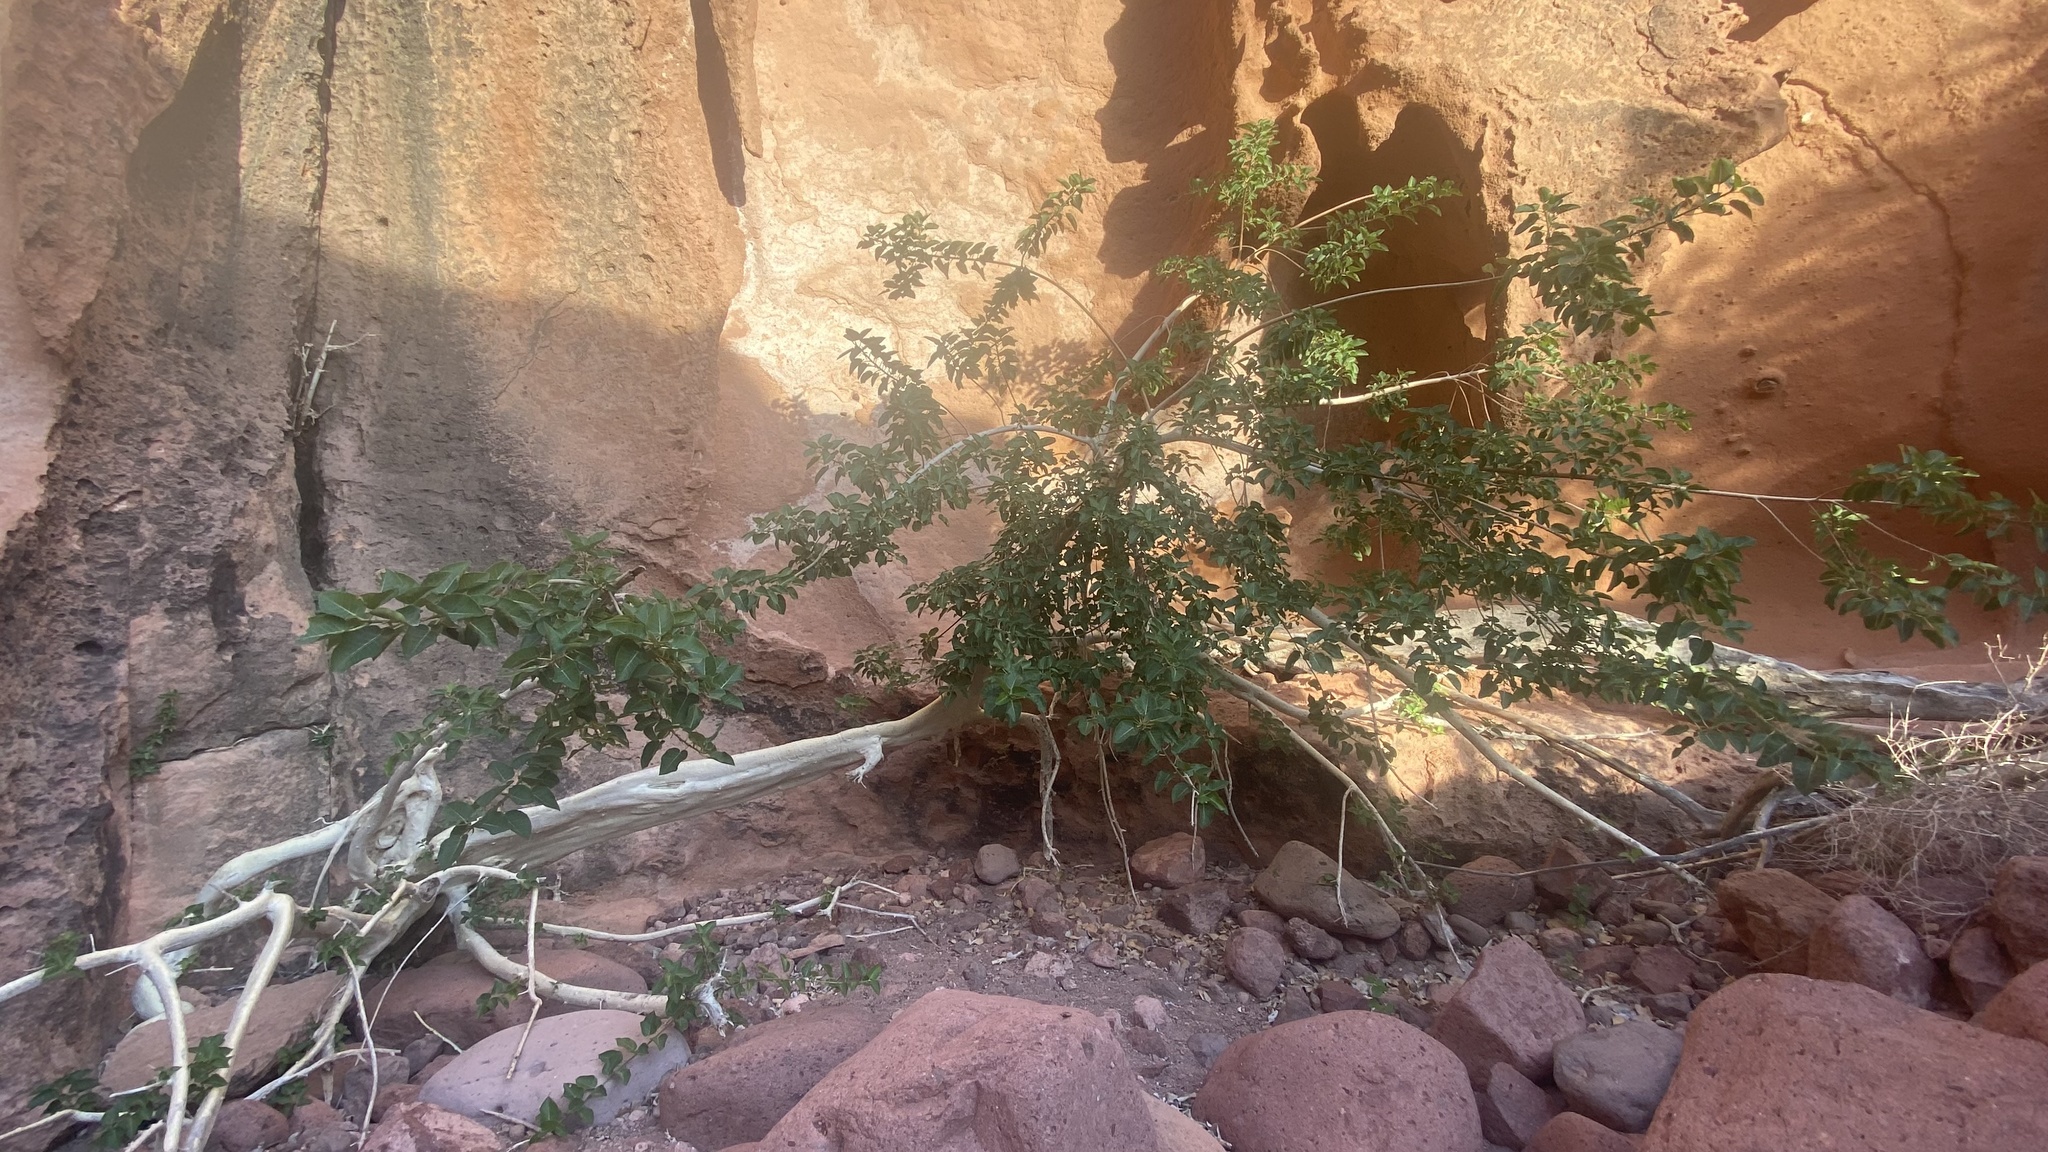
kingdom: Plantae
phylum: Tracheophyta
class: Magnoliopsida
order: Rosales
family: Moraceae
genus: Ficus
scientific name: Ficus petiolaris
